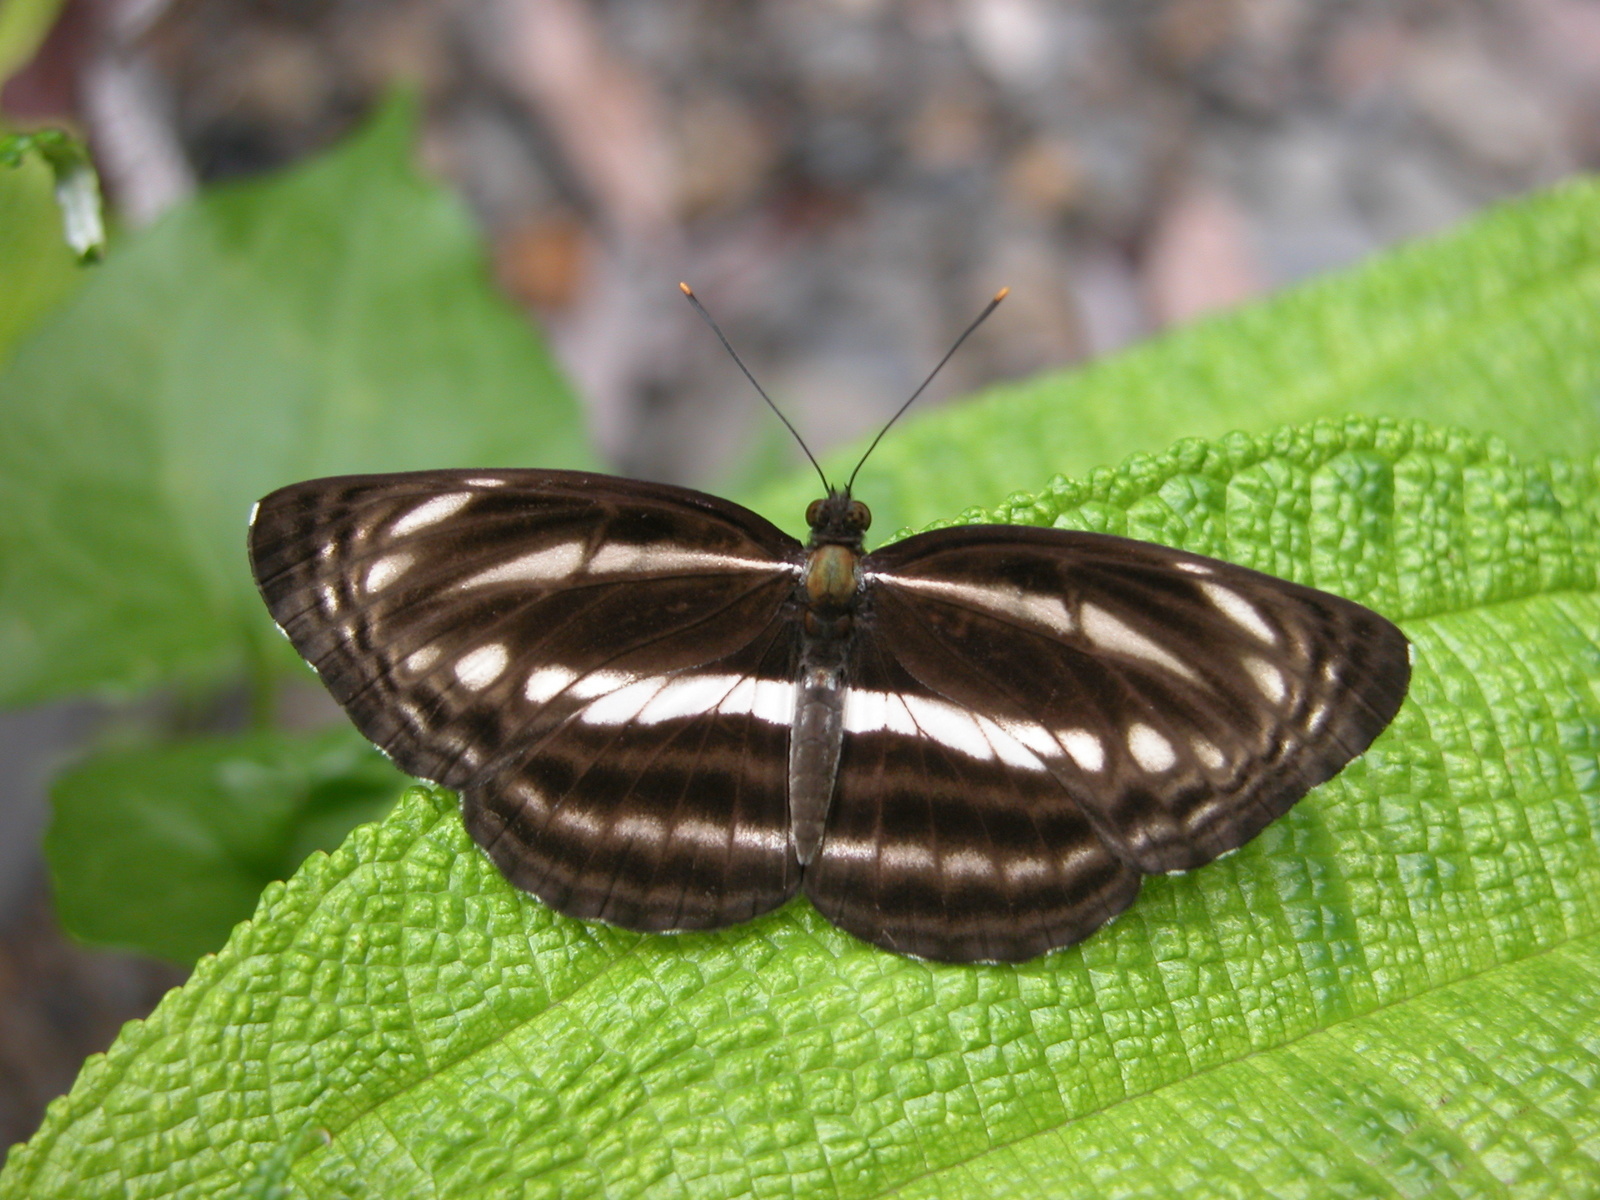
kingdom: Animalia
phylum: Arthropoda
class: Insecta
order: Lepidoptera
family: Nymphalidae
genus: Neptis
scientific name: Neptis clinia
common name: Southern sullied sailer
